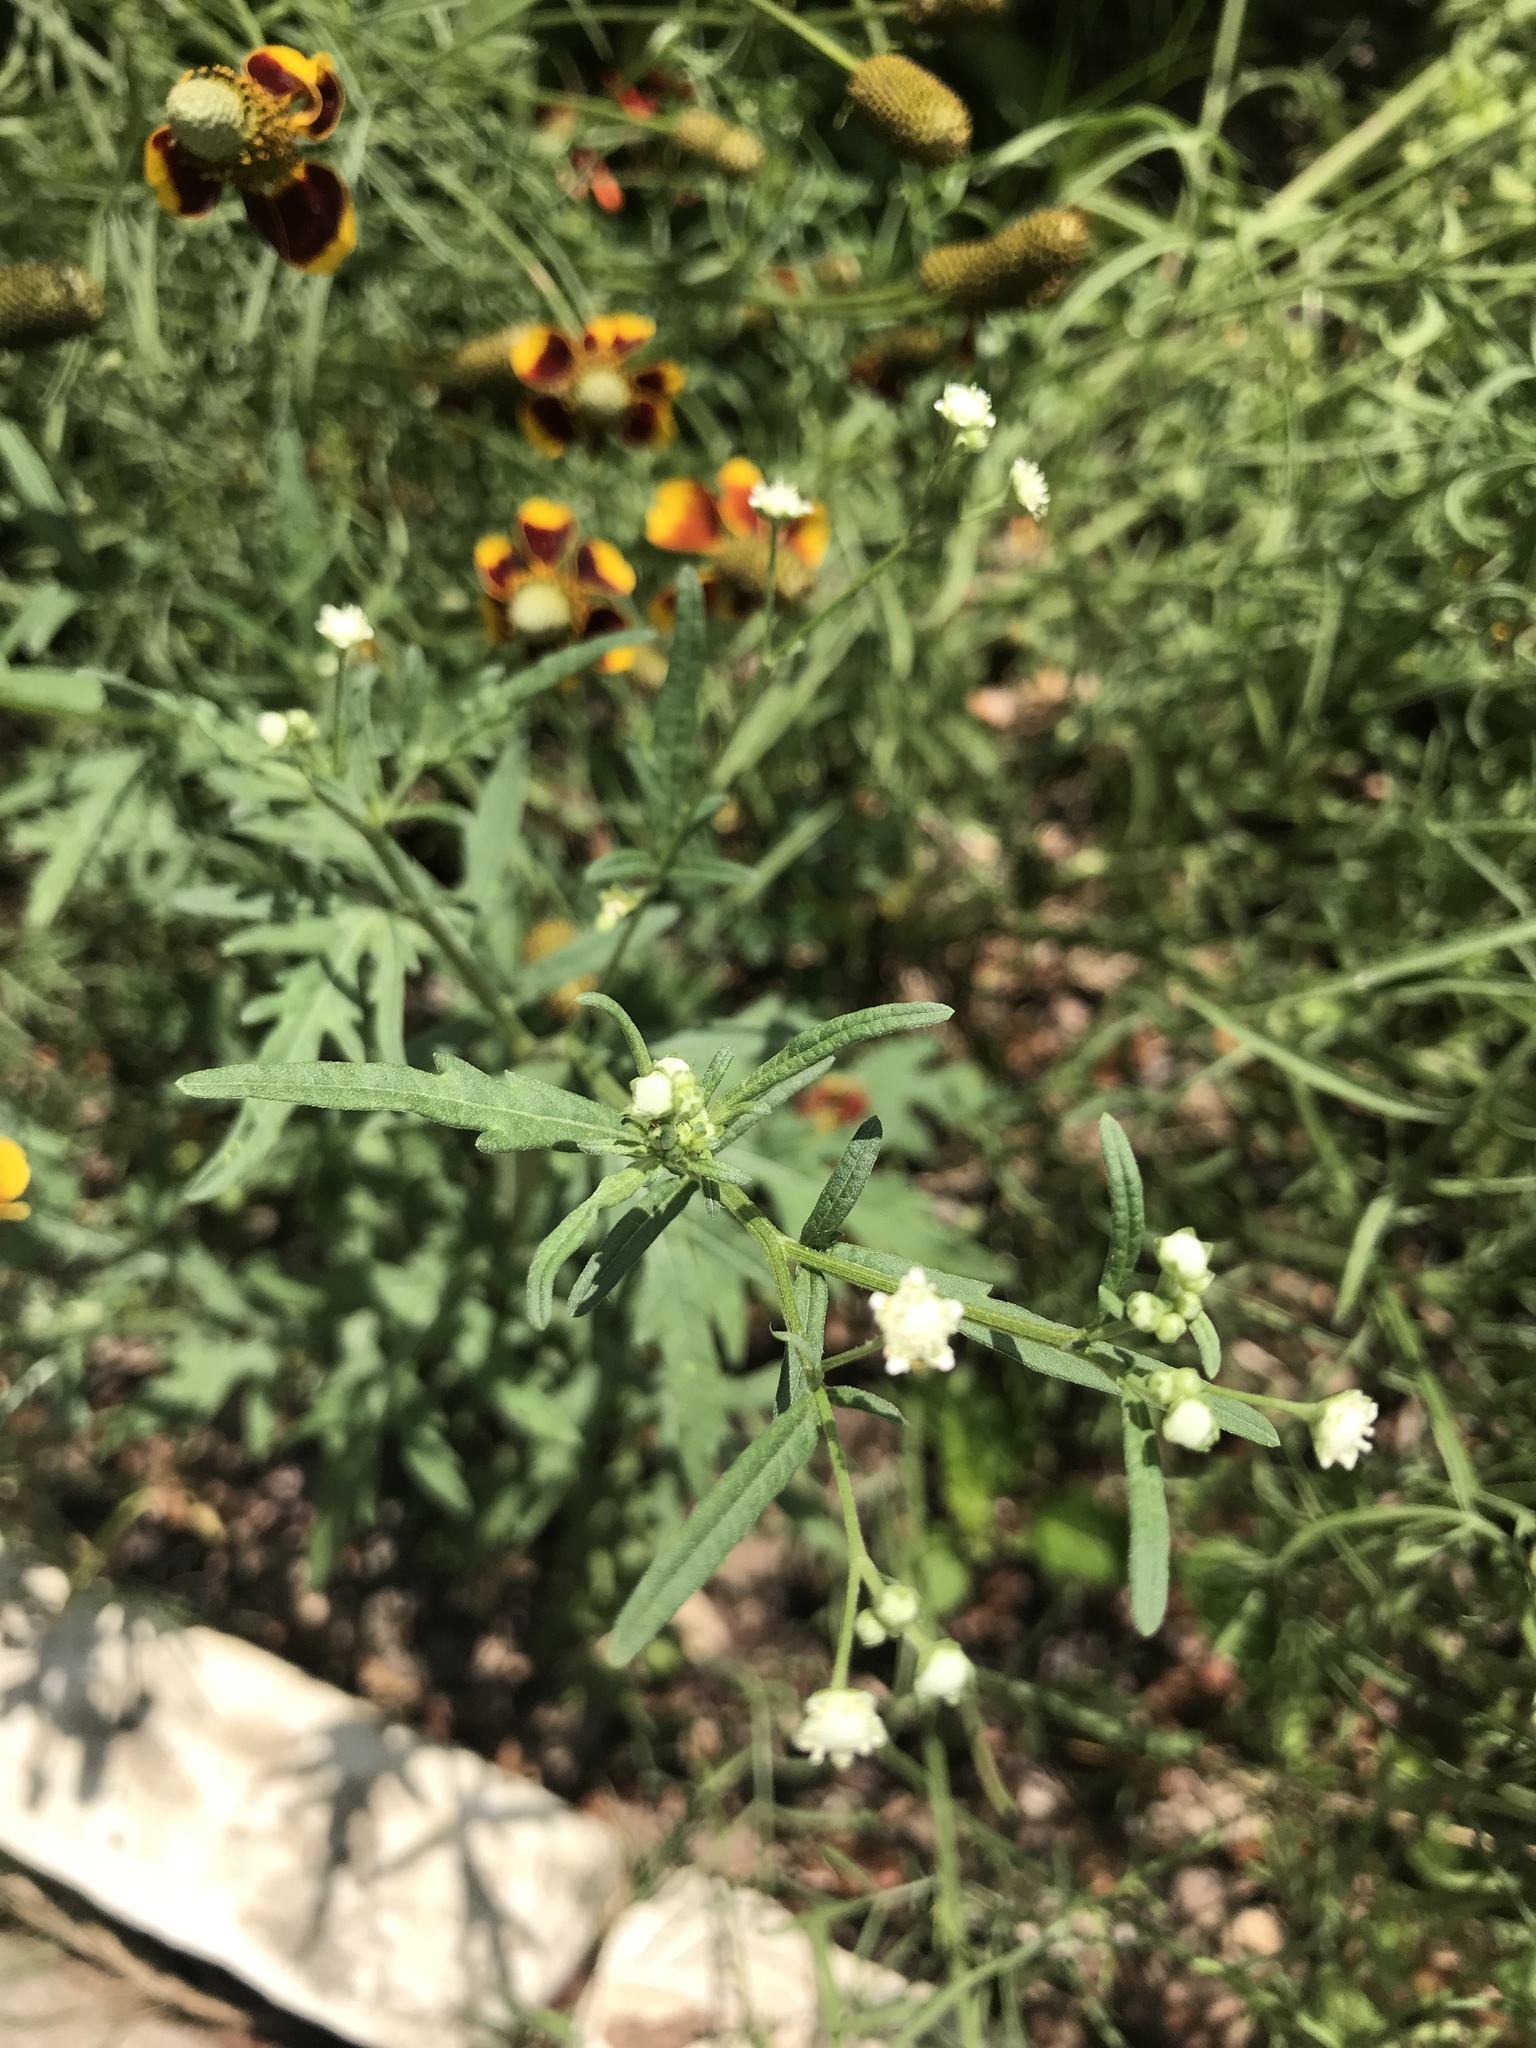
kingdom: Plantae
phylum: Tracheophyta
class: Magnoliopsida
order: Asterales
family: Asteraceae
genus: Parthenium
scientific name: Parthenium hysterophorus
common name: Santa maria feverfew
